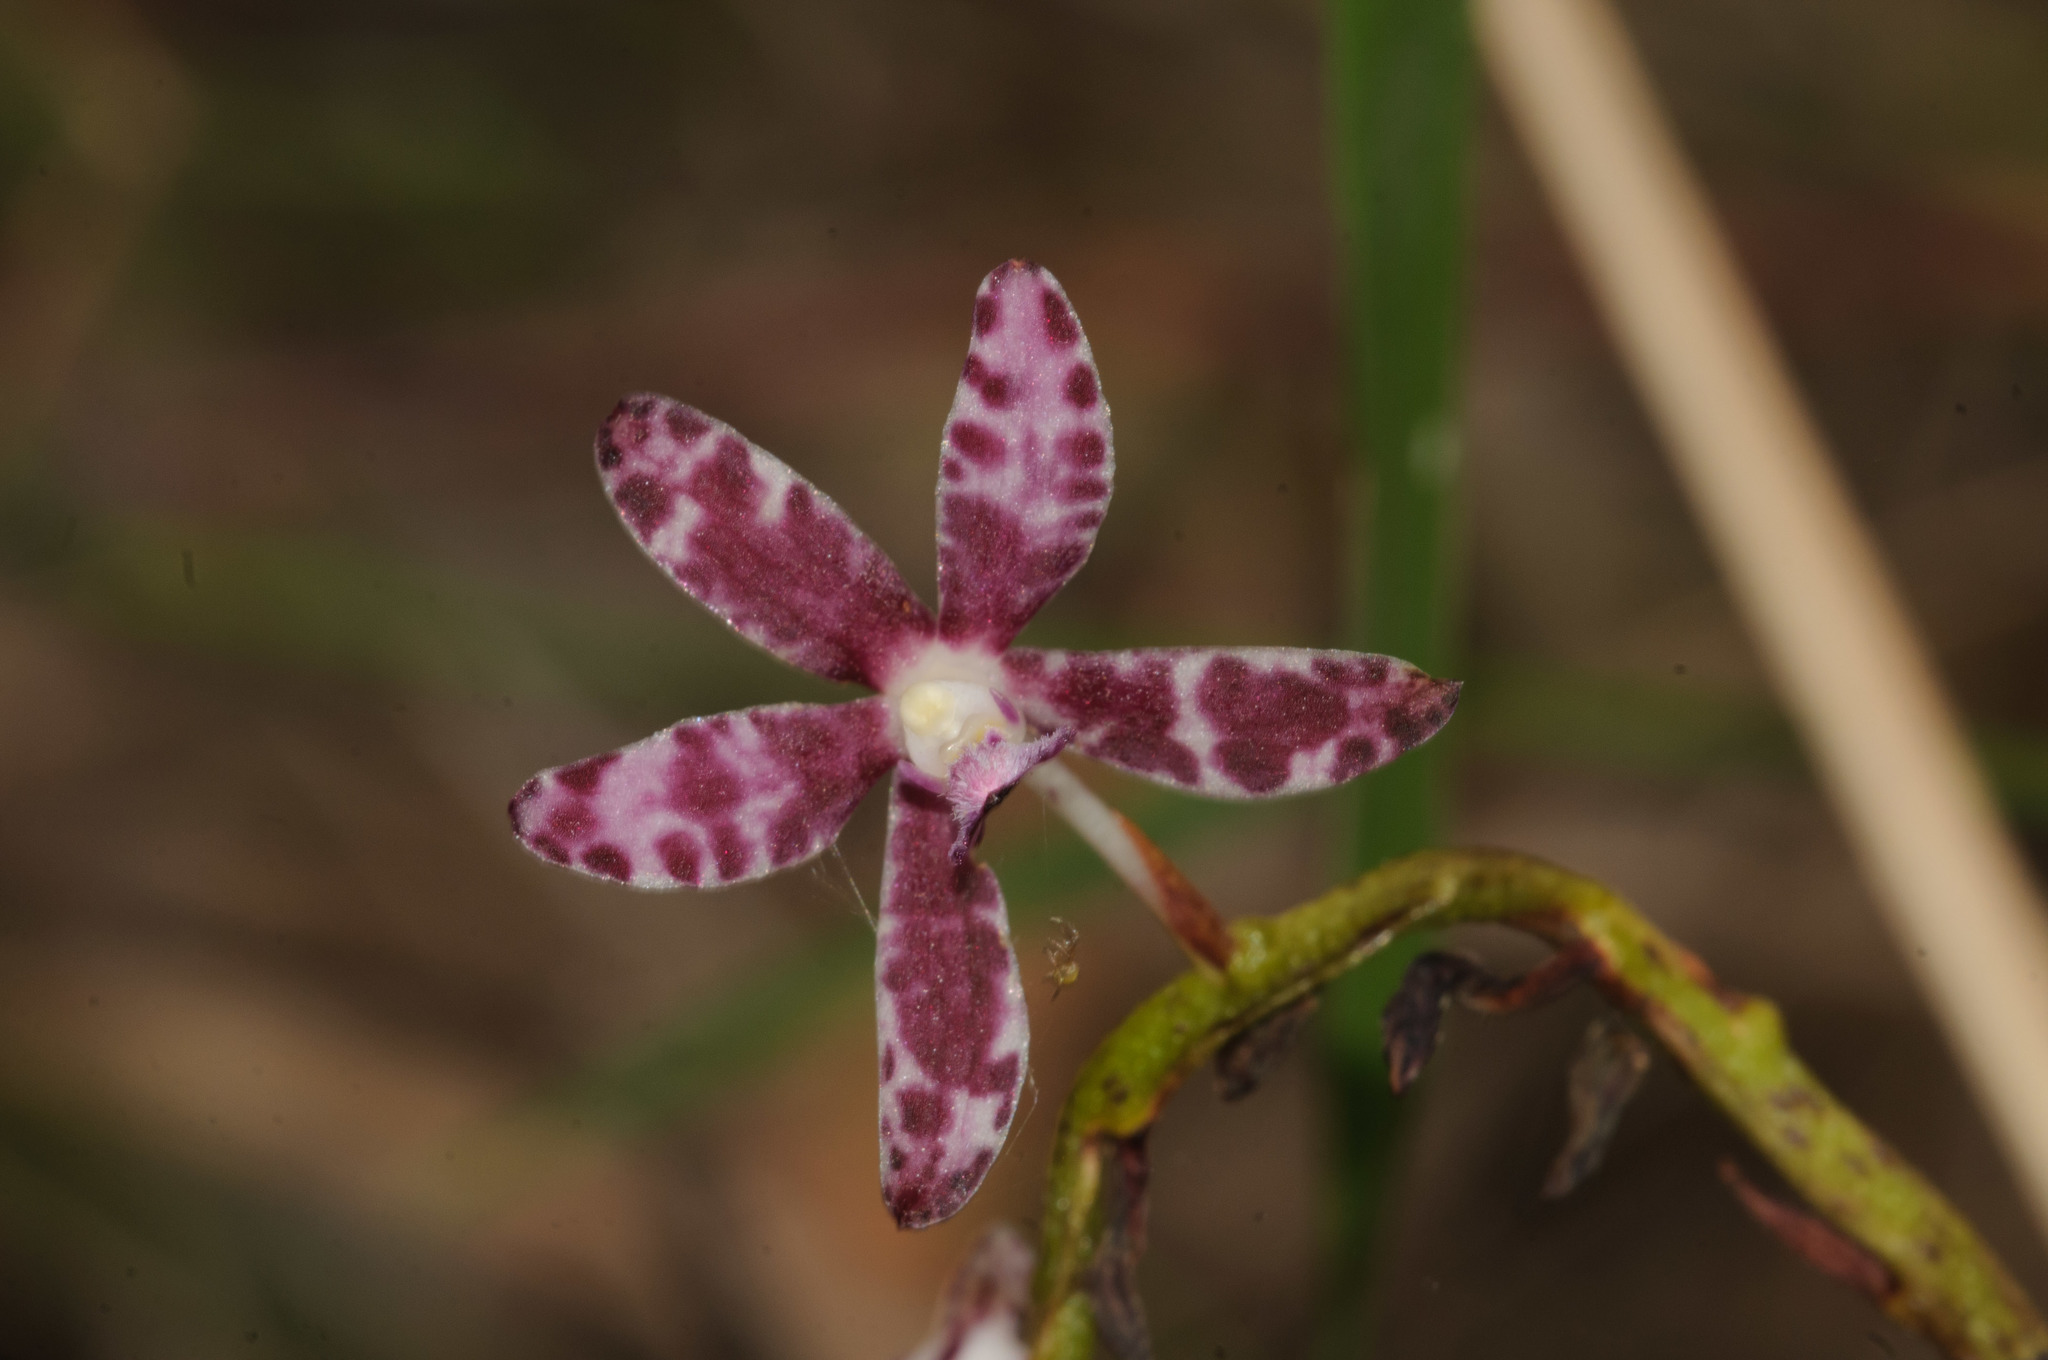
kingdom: Plantae
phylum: Tracheophyta
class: Liliopsida
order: Asparagales
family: Orchidaceae
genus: Dipodium
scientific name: Dipodium variegatum
